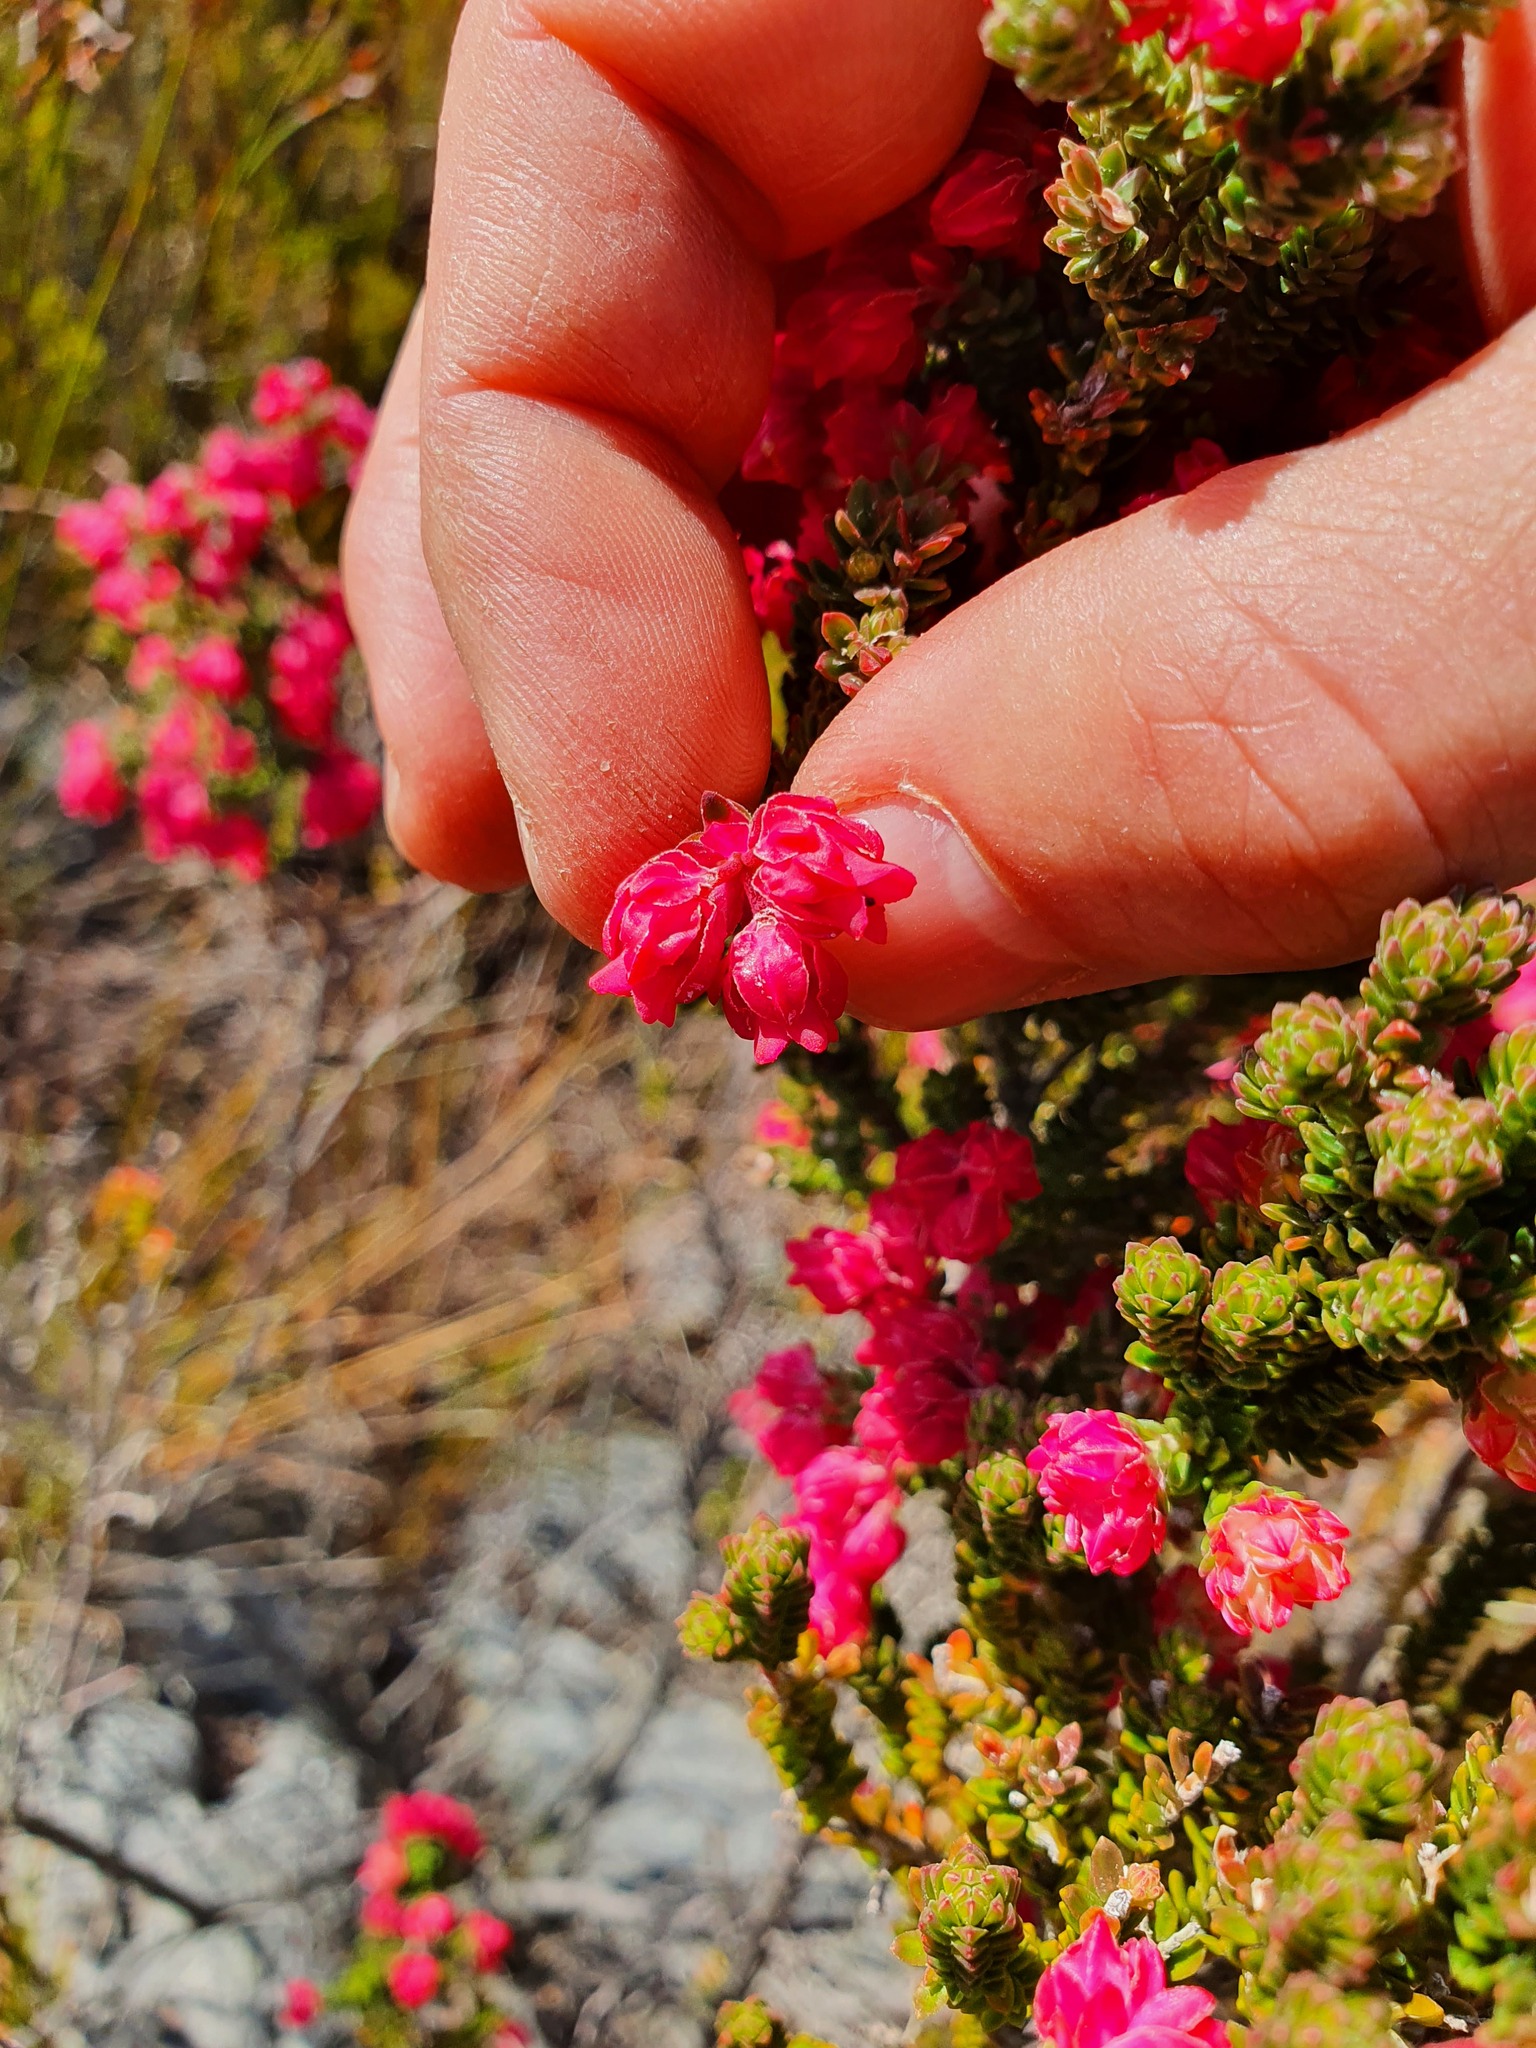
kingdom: Plantae
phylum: Tracheophyta
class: Magnoliopsida
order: Ericales
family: Ericaceae
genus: Erica
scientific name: Erica tegulifolia
